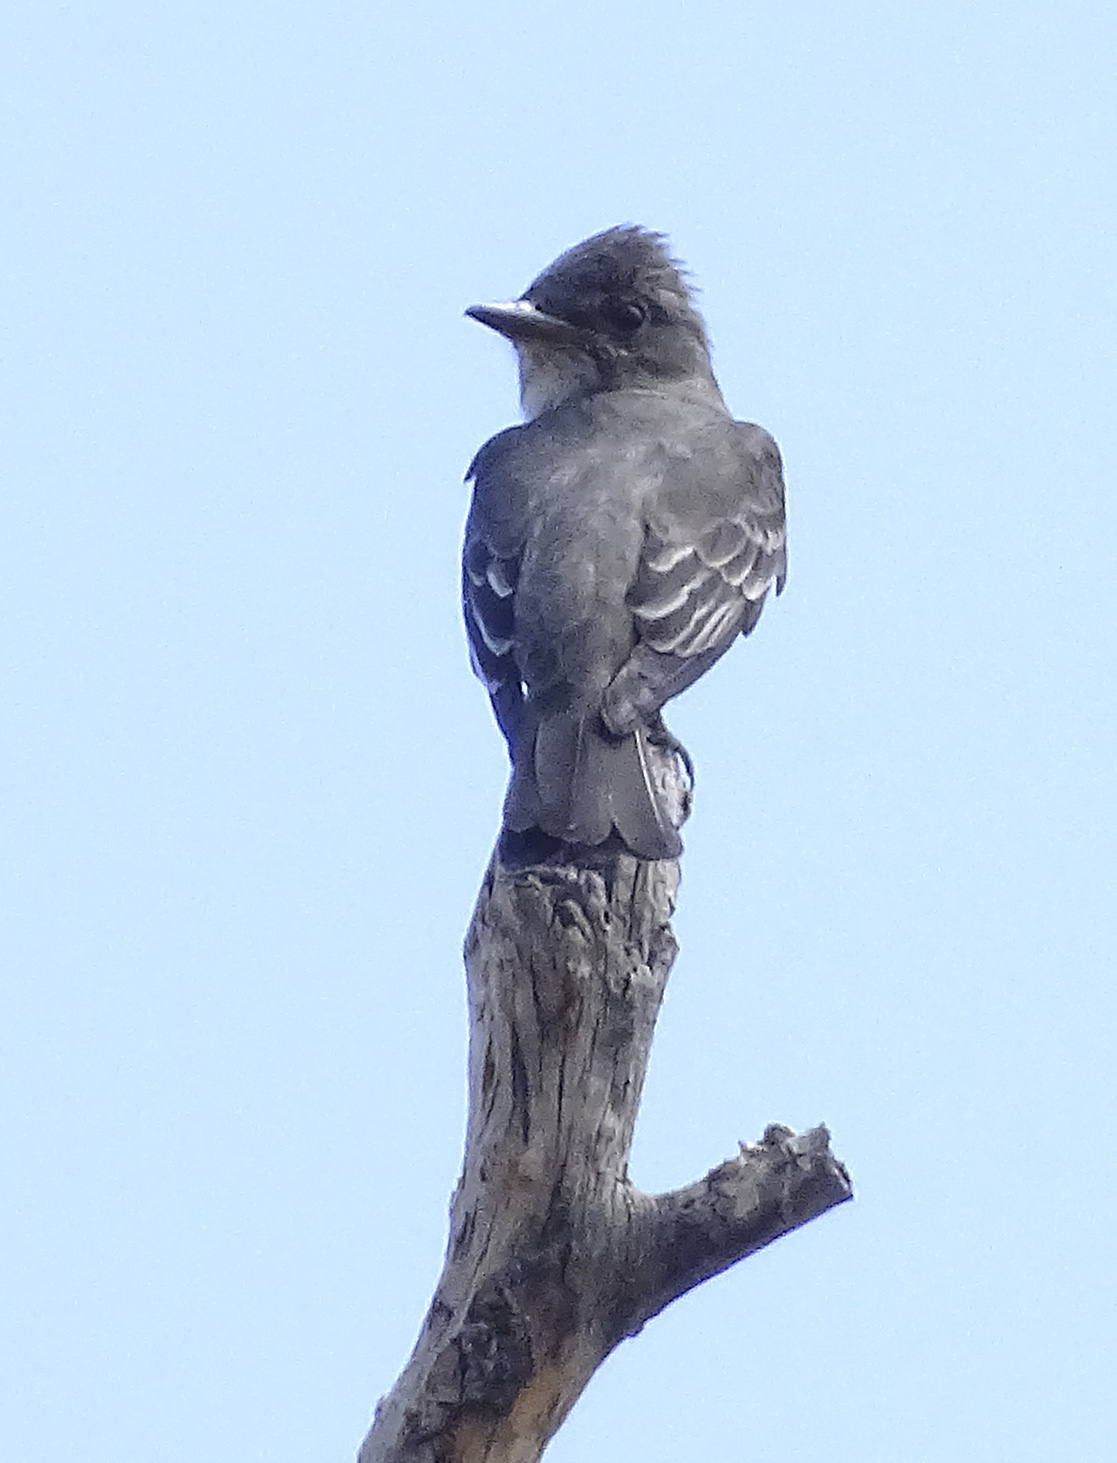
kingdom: Animalia
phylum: Chordata
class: Aves
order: Passeriformes
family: Tyrannidae
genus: Contopus
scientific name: Contopus cooperi
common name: Olive-sided flycatcher
